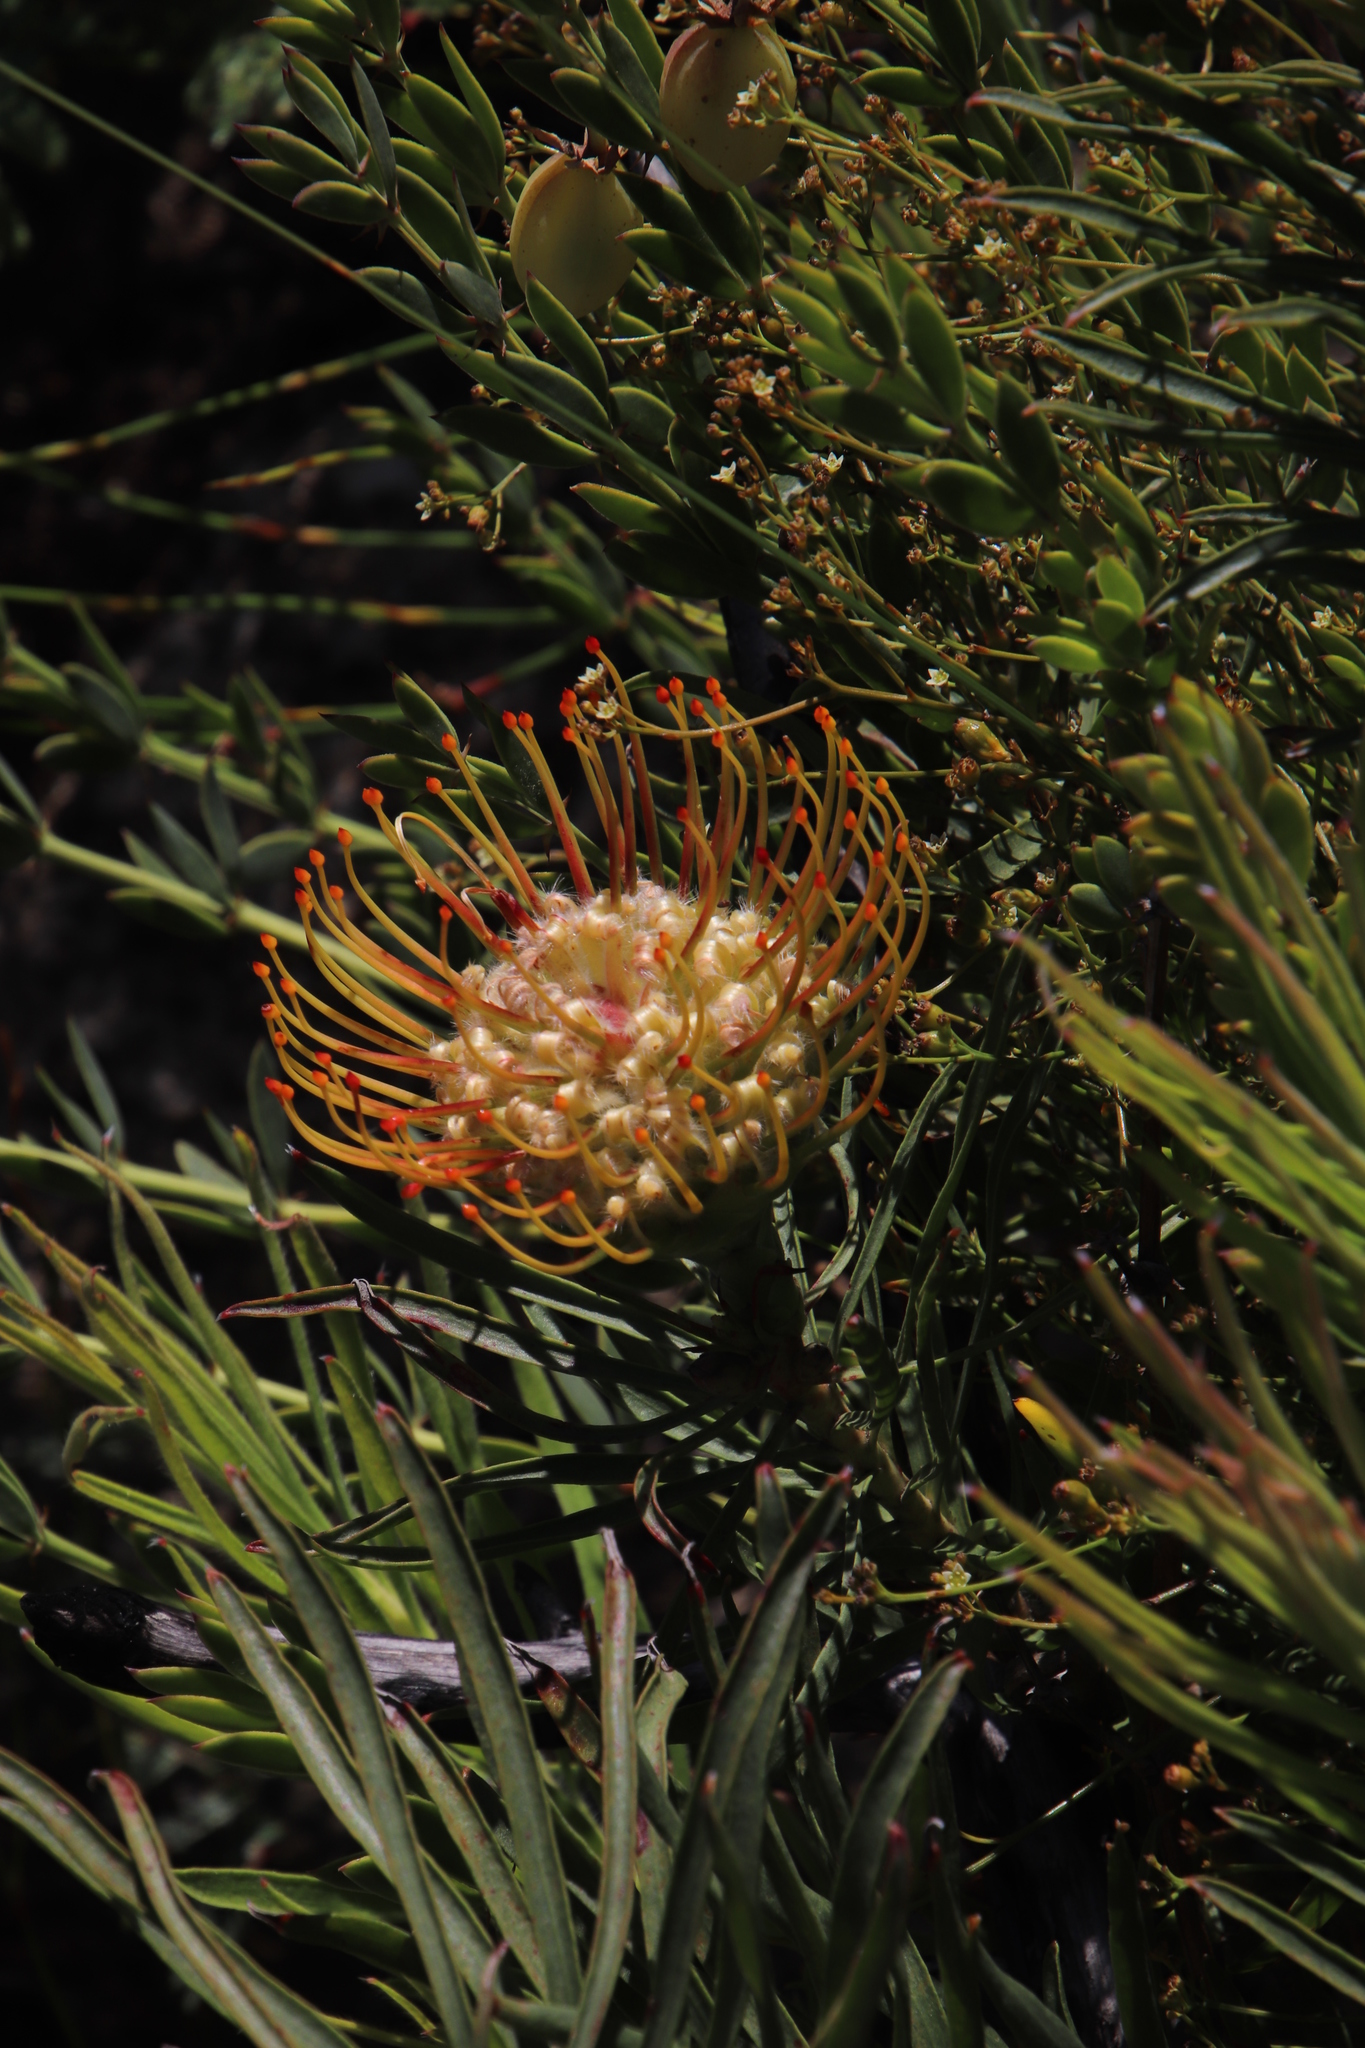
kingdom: Plantae
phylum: Tracheophyta
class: Magnoliopsida
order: Proteales
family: Proteaceae
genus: Leucospermum
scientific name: Leucospermum lineare
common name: Needle-leaf pincushion
